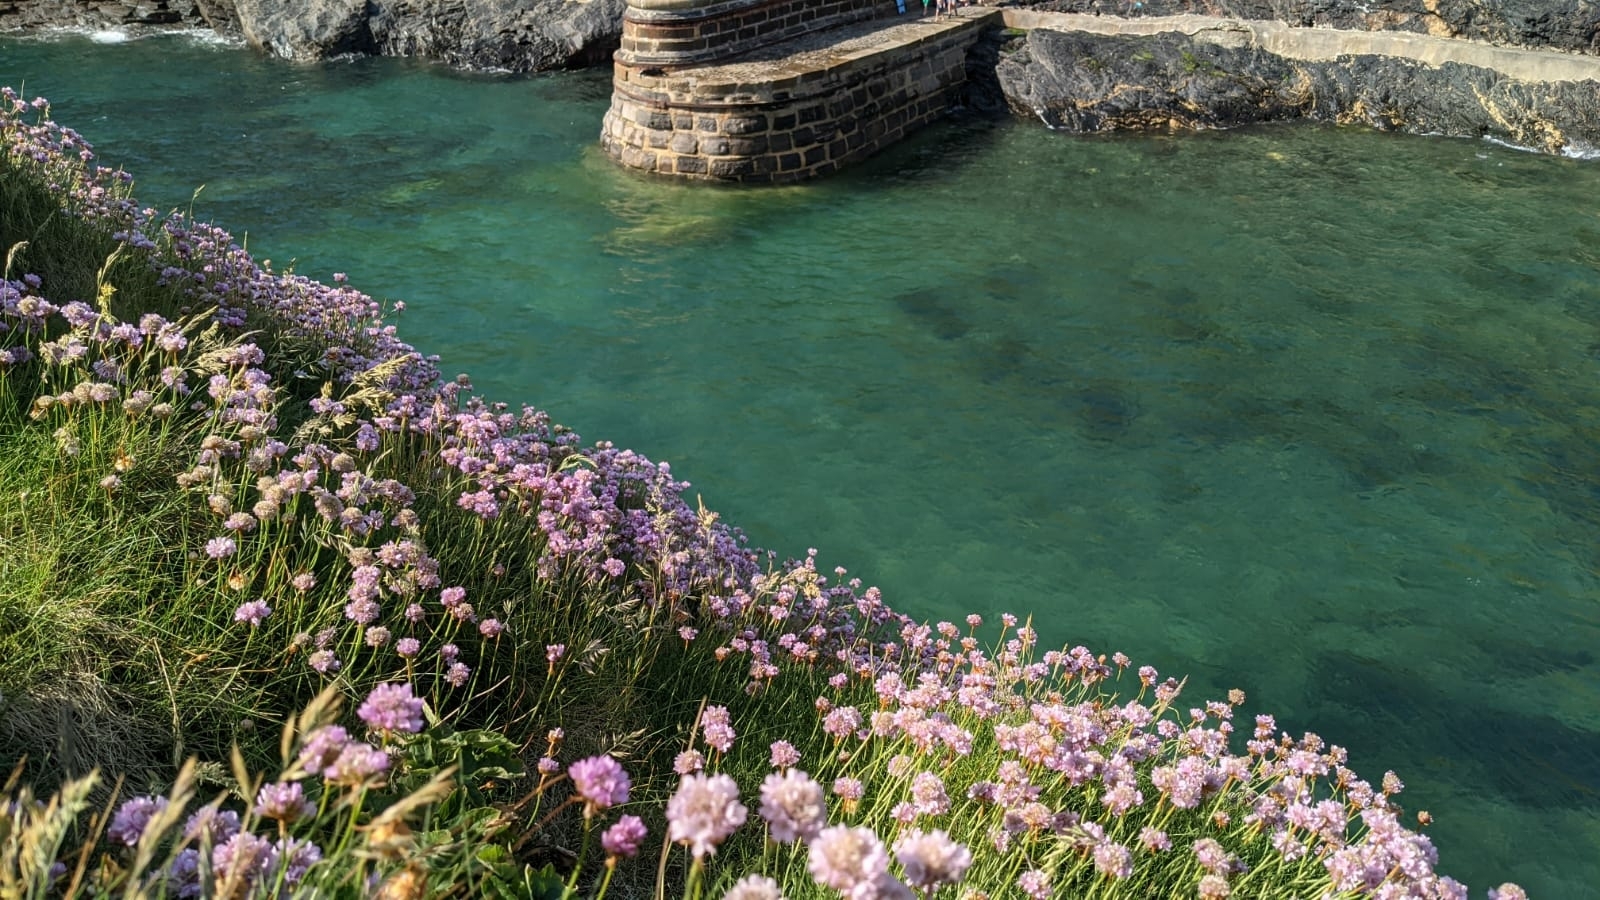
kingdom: Plantae
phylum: Tracheophyta
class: Magnoliopsida
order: Caryophyllales
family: Plumbaginaceae
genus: Armeria
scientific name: Armeria maritima
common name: Thrift
